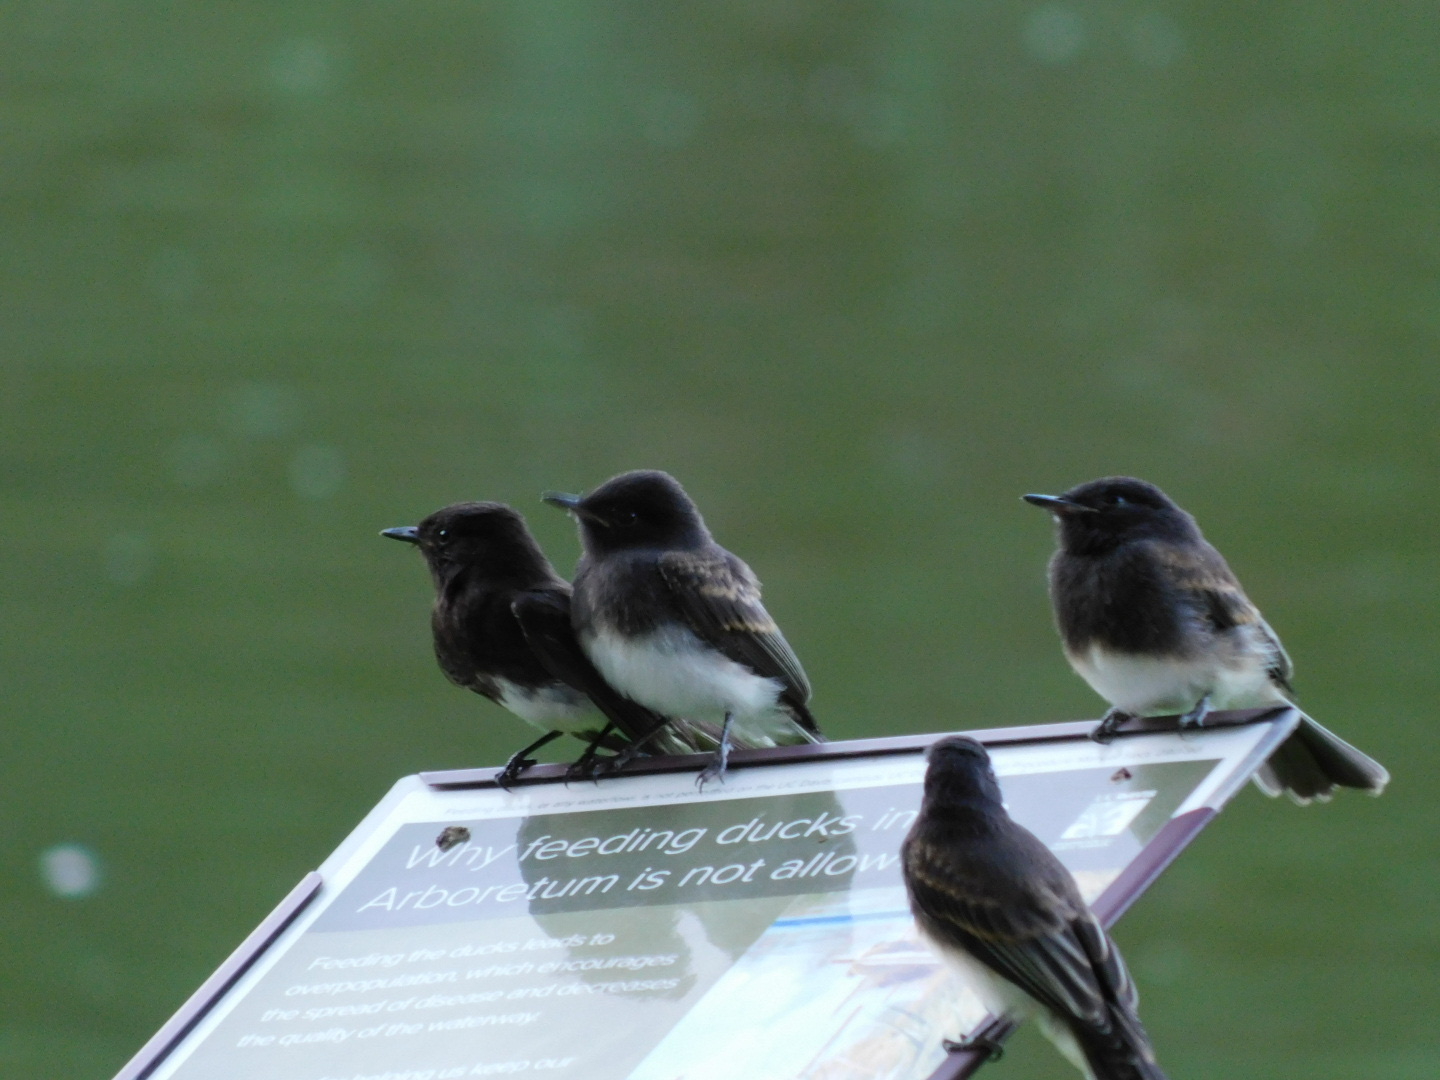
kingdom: Animalia
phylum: Chordata
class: Aves
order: Passeriformes
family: Tyrannidae
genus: Sayornis
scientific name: Sayornis nigricans
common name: Black phoebe
